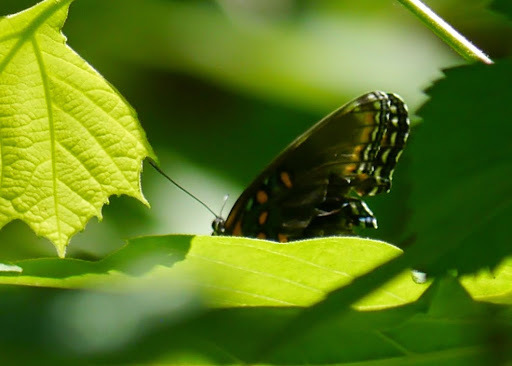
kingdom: Animalia
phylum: Arthropoda
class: Insecta
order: Lepidoptera
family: Nymphalidae
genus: Limenitis
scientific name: Limenitis astyanax
